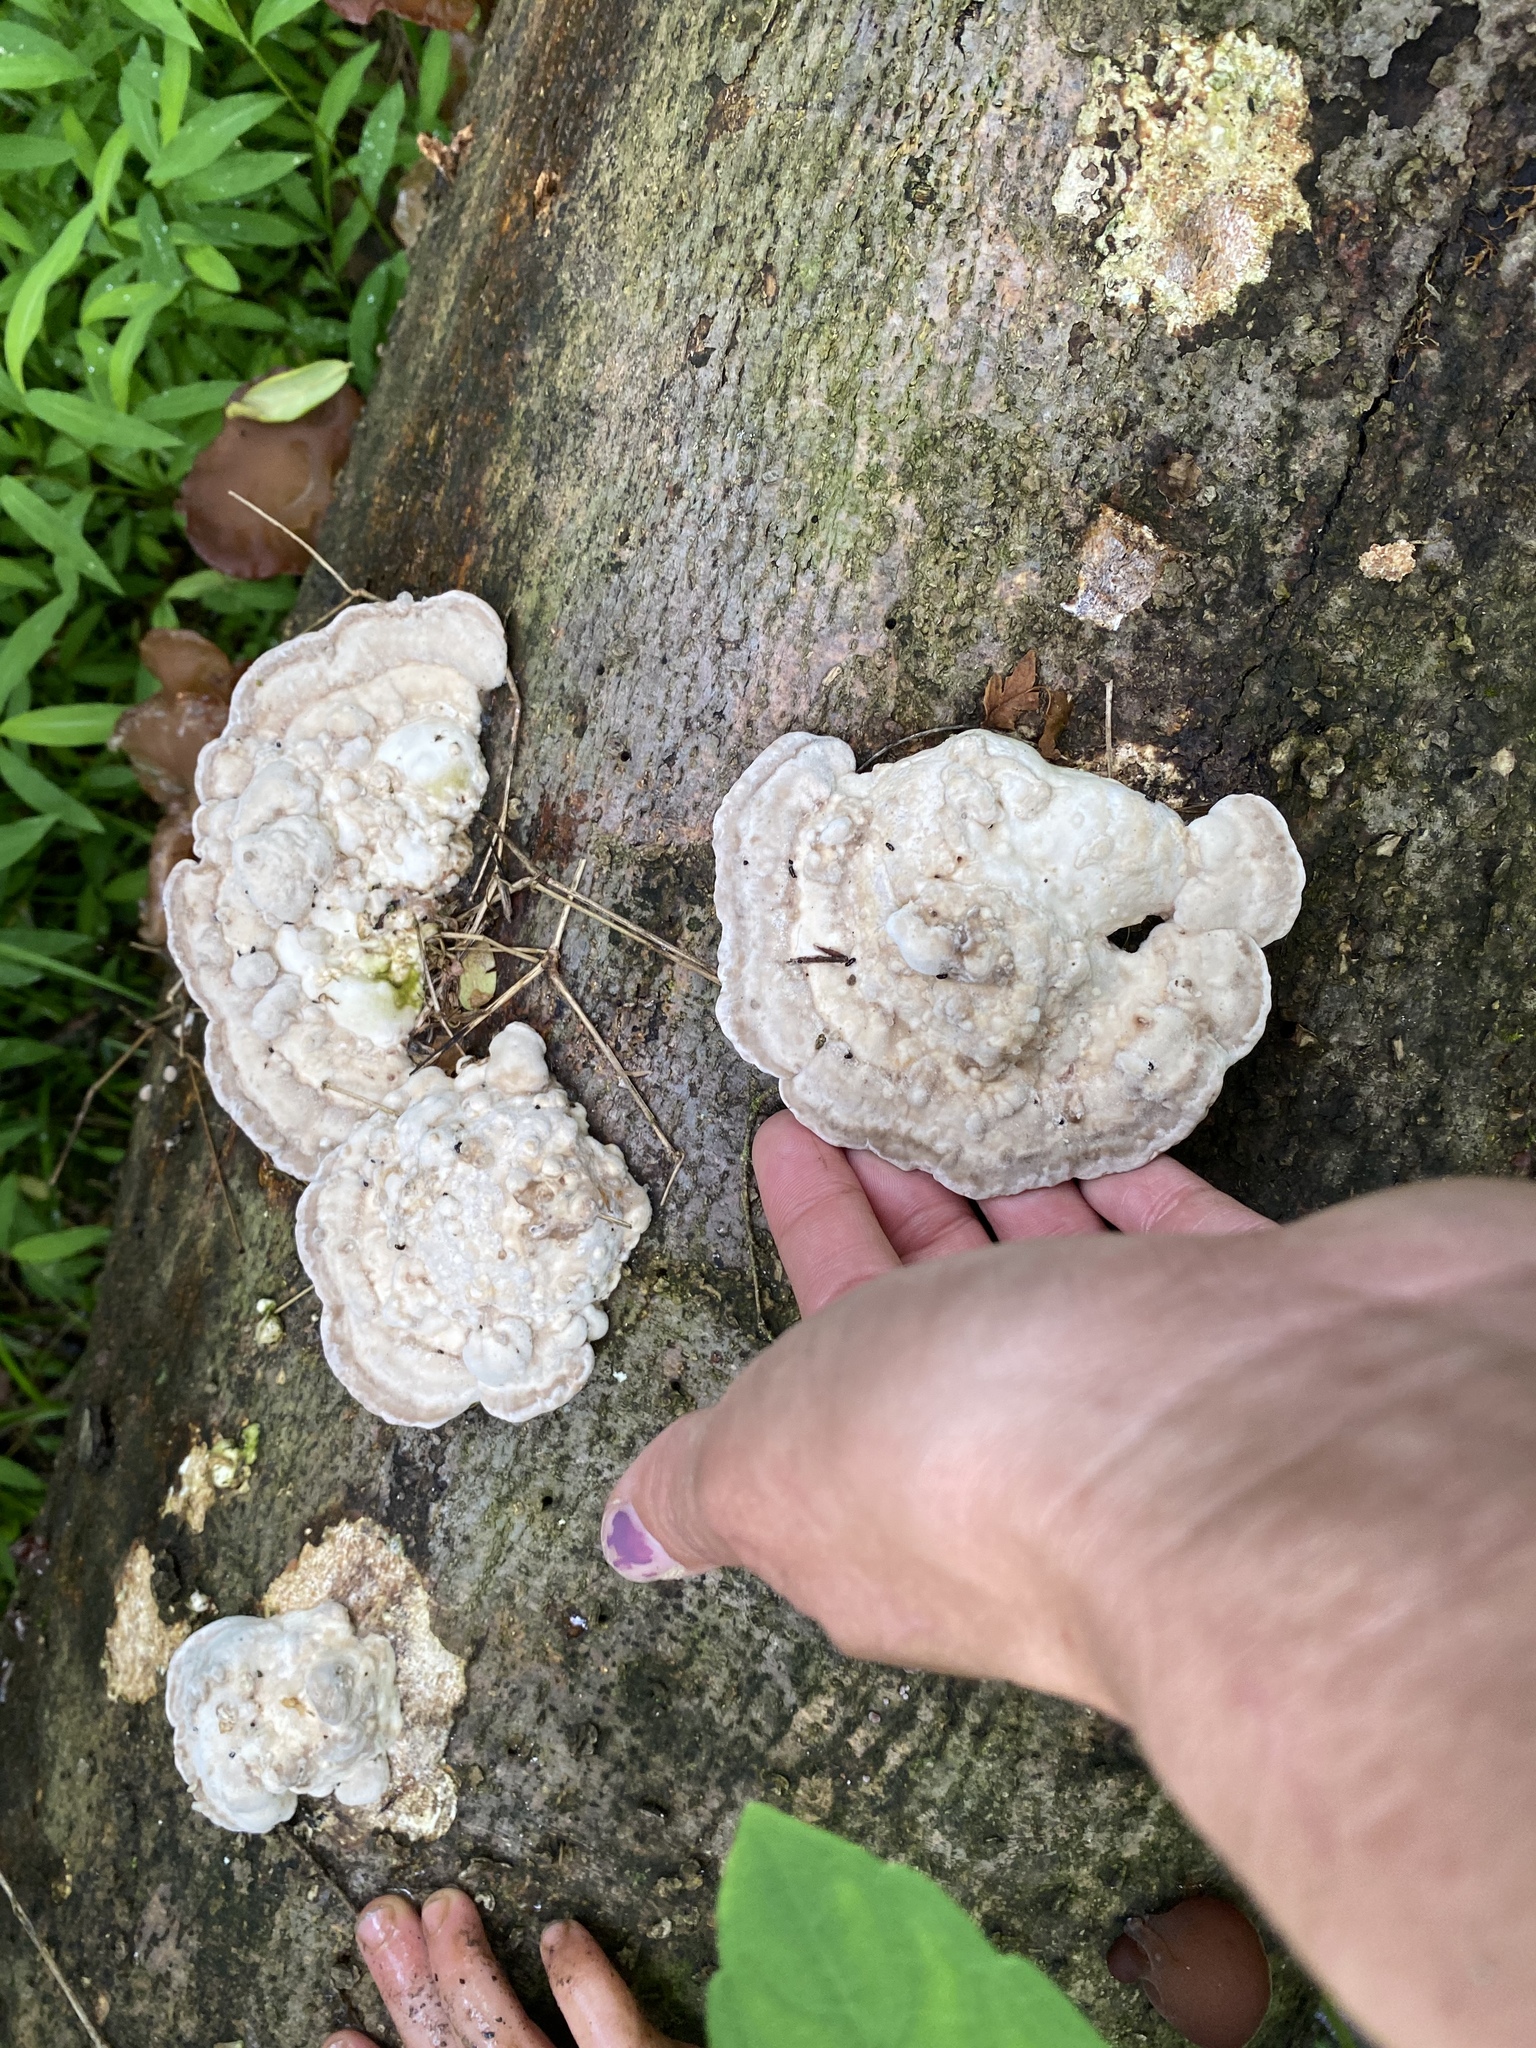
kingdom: Fungi
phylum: Basidiomycota
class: Agaricomycetes
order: Polyporales
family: Polyporaceae
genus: Trametes
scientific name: Trametes gibbosa
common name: Lumpy bracket
